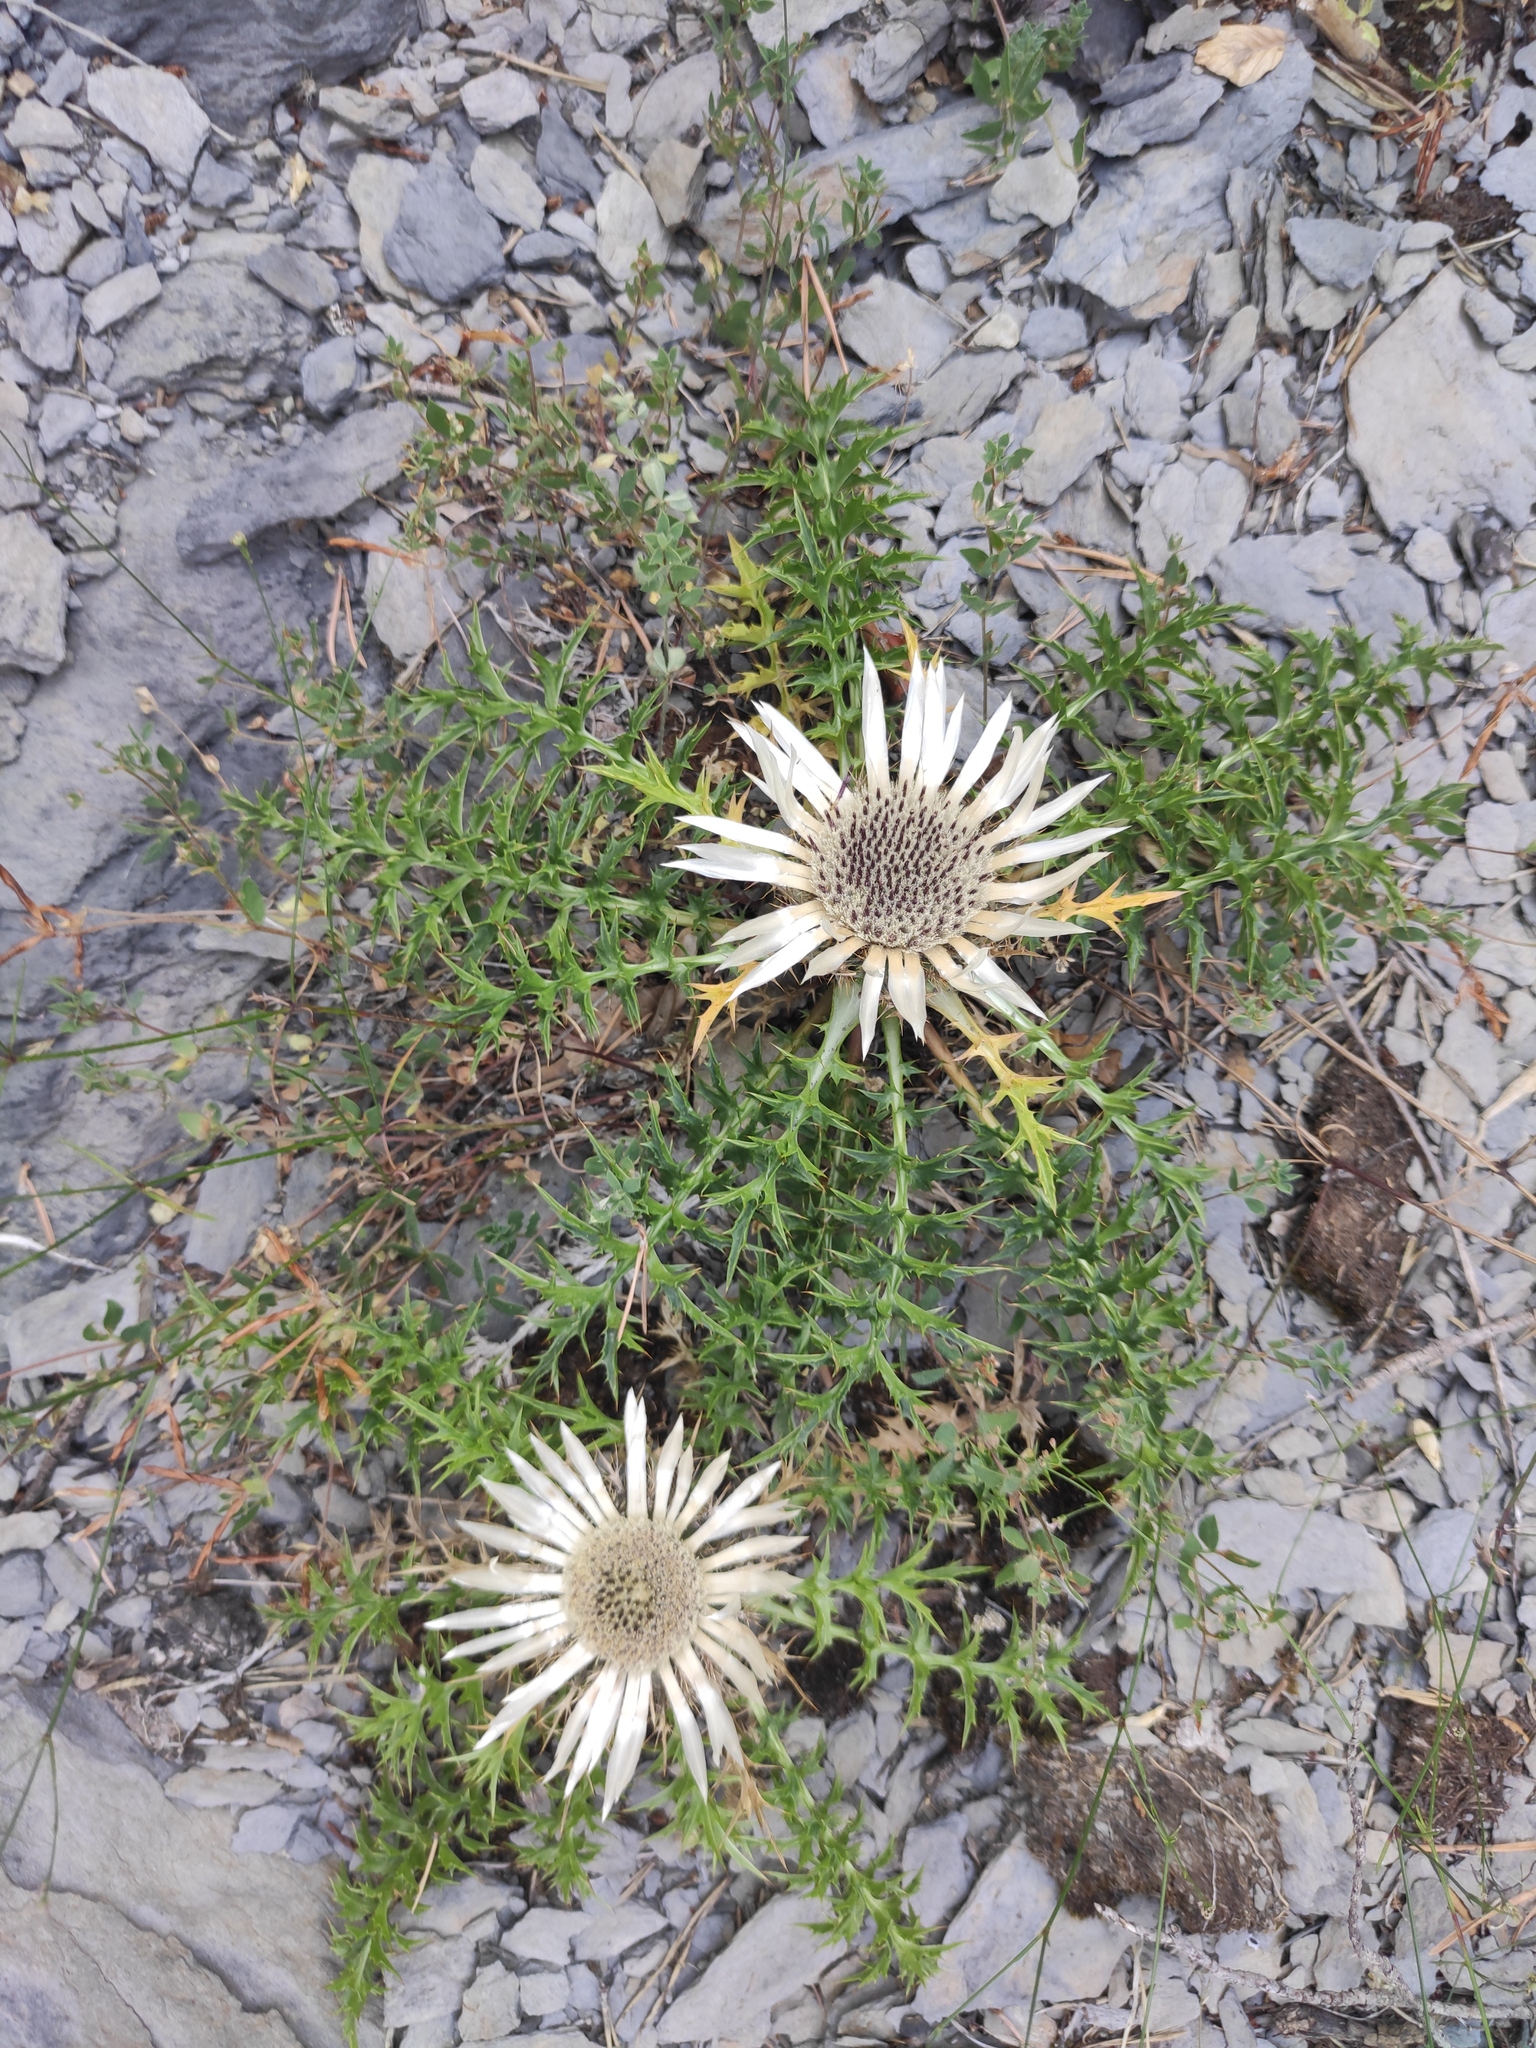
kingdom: Plantae
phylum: Tracheophyta
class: Magnoliopsida
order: Asterales
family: Asteraceae
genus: Carlina
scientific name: Carlina acaulis
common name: Stemless carline thistle
